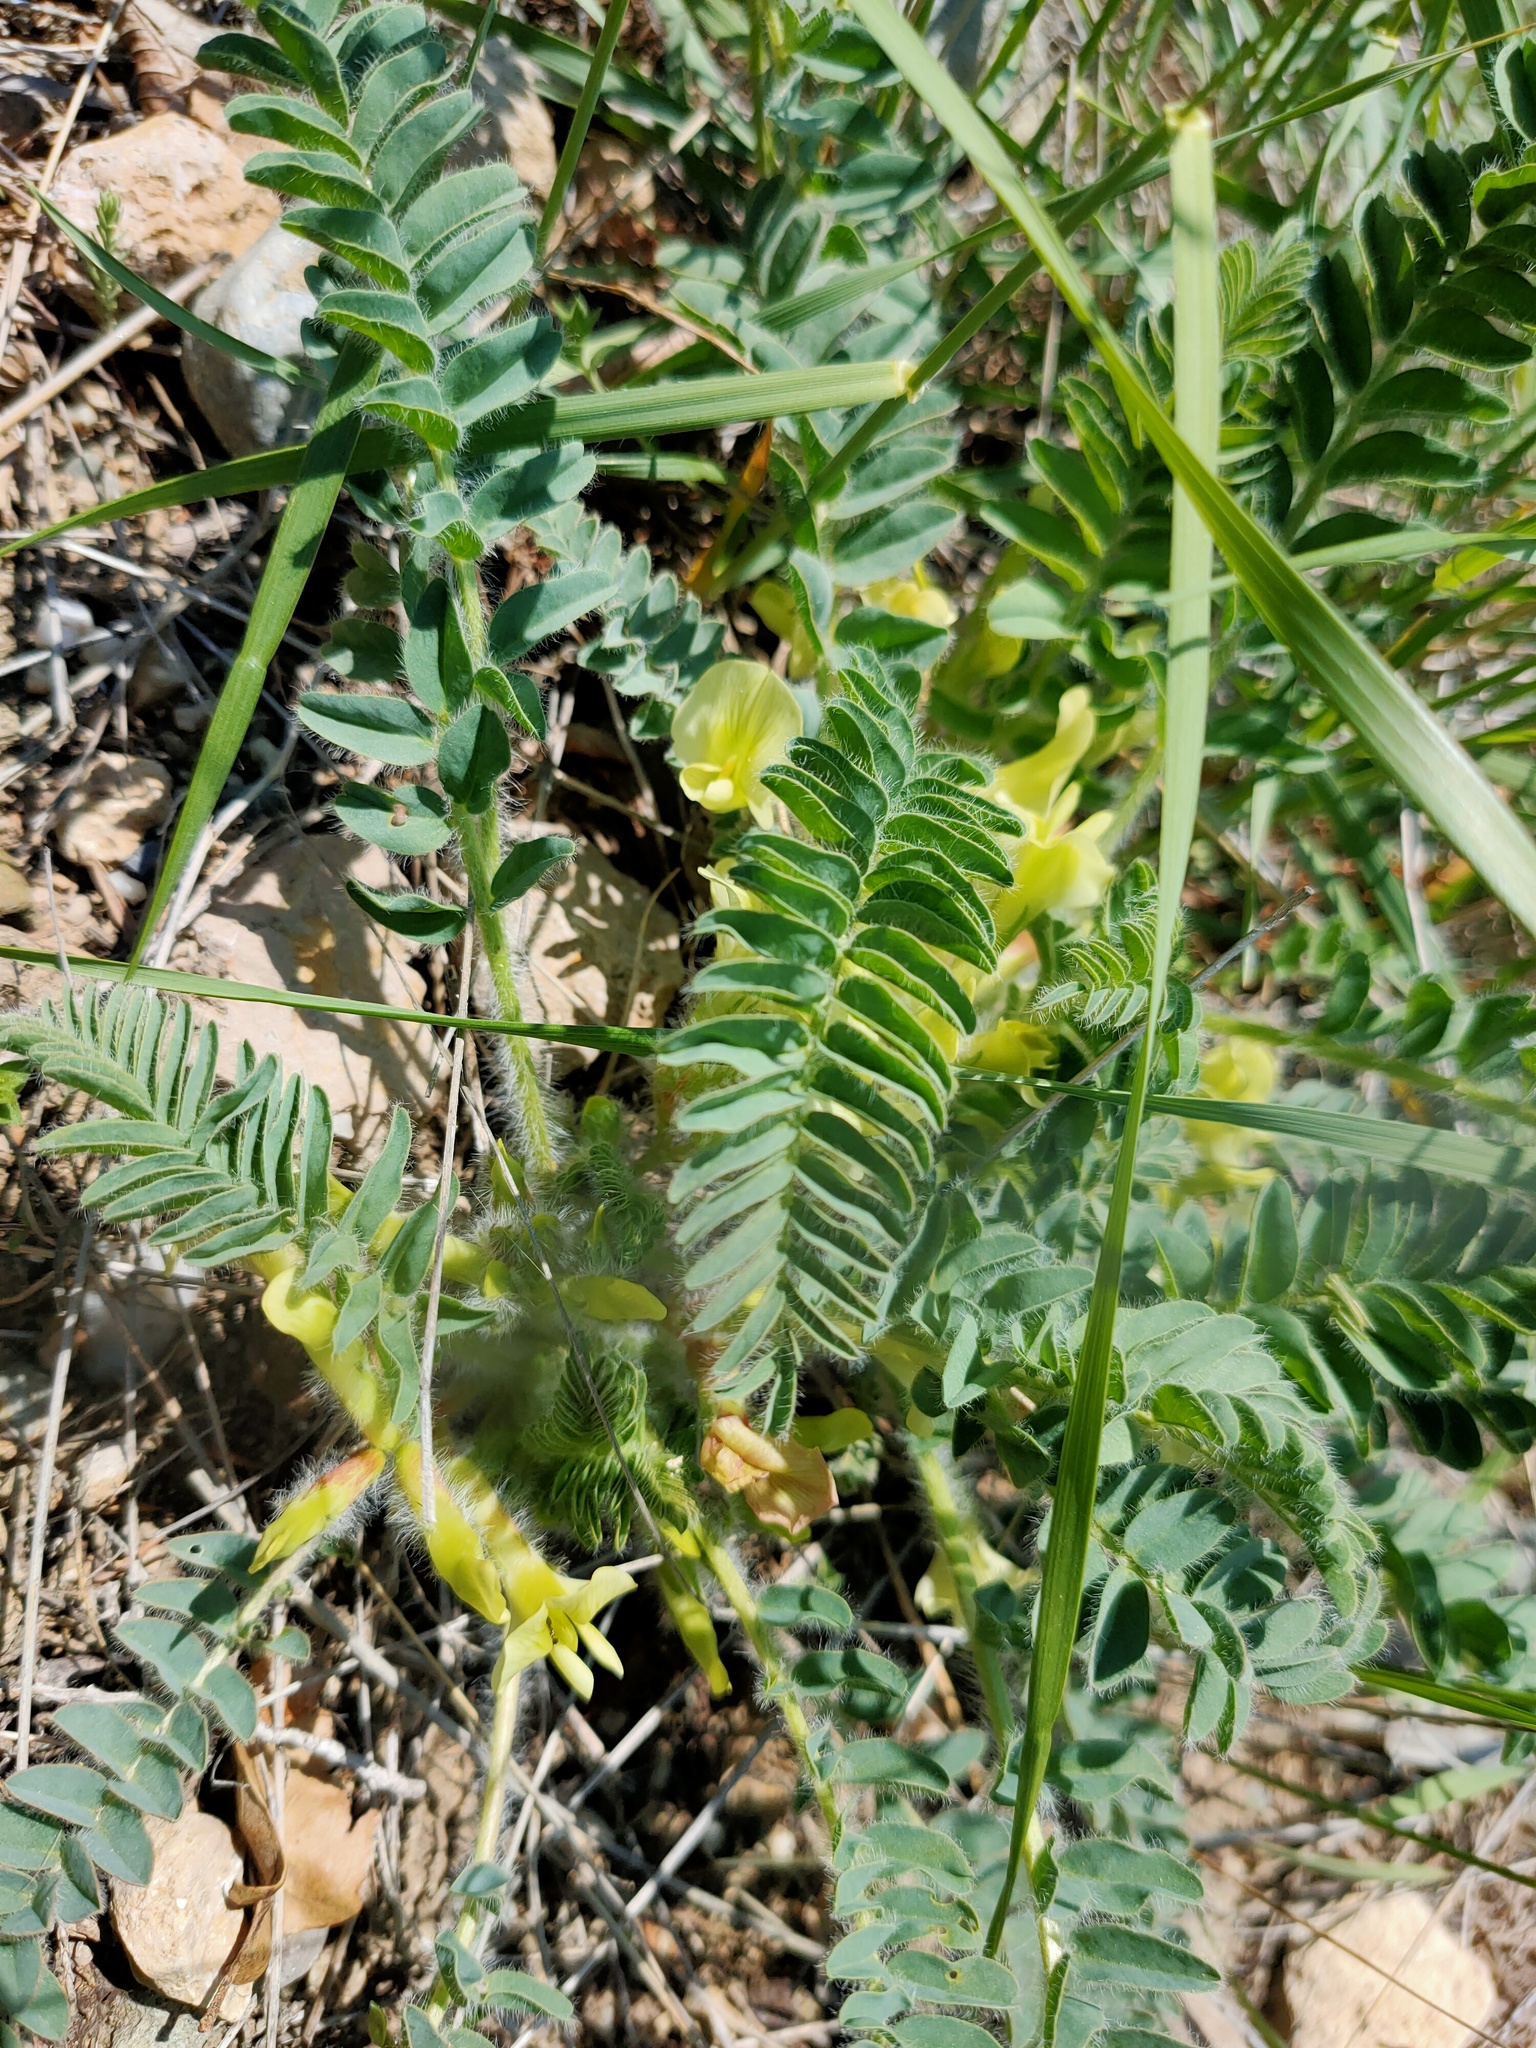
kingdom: Plantae
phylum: Tracheophyta
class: Magnoliopsida
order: Fabales
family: Fabaceae
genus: Astragalus
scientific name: Astragalus utriger
